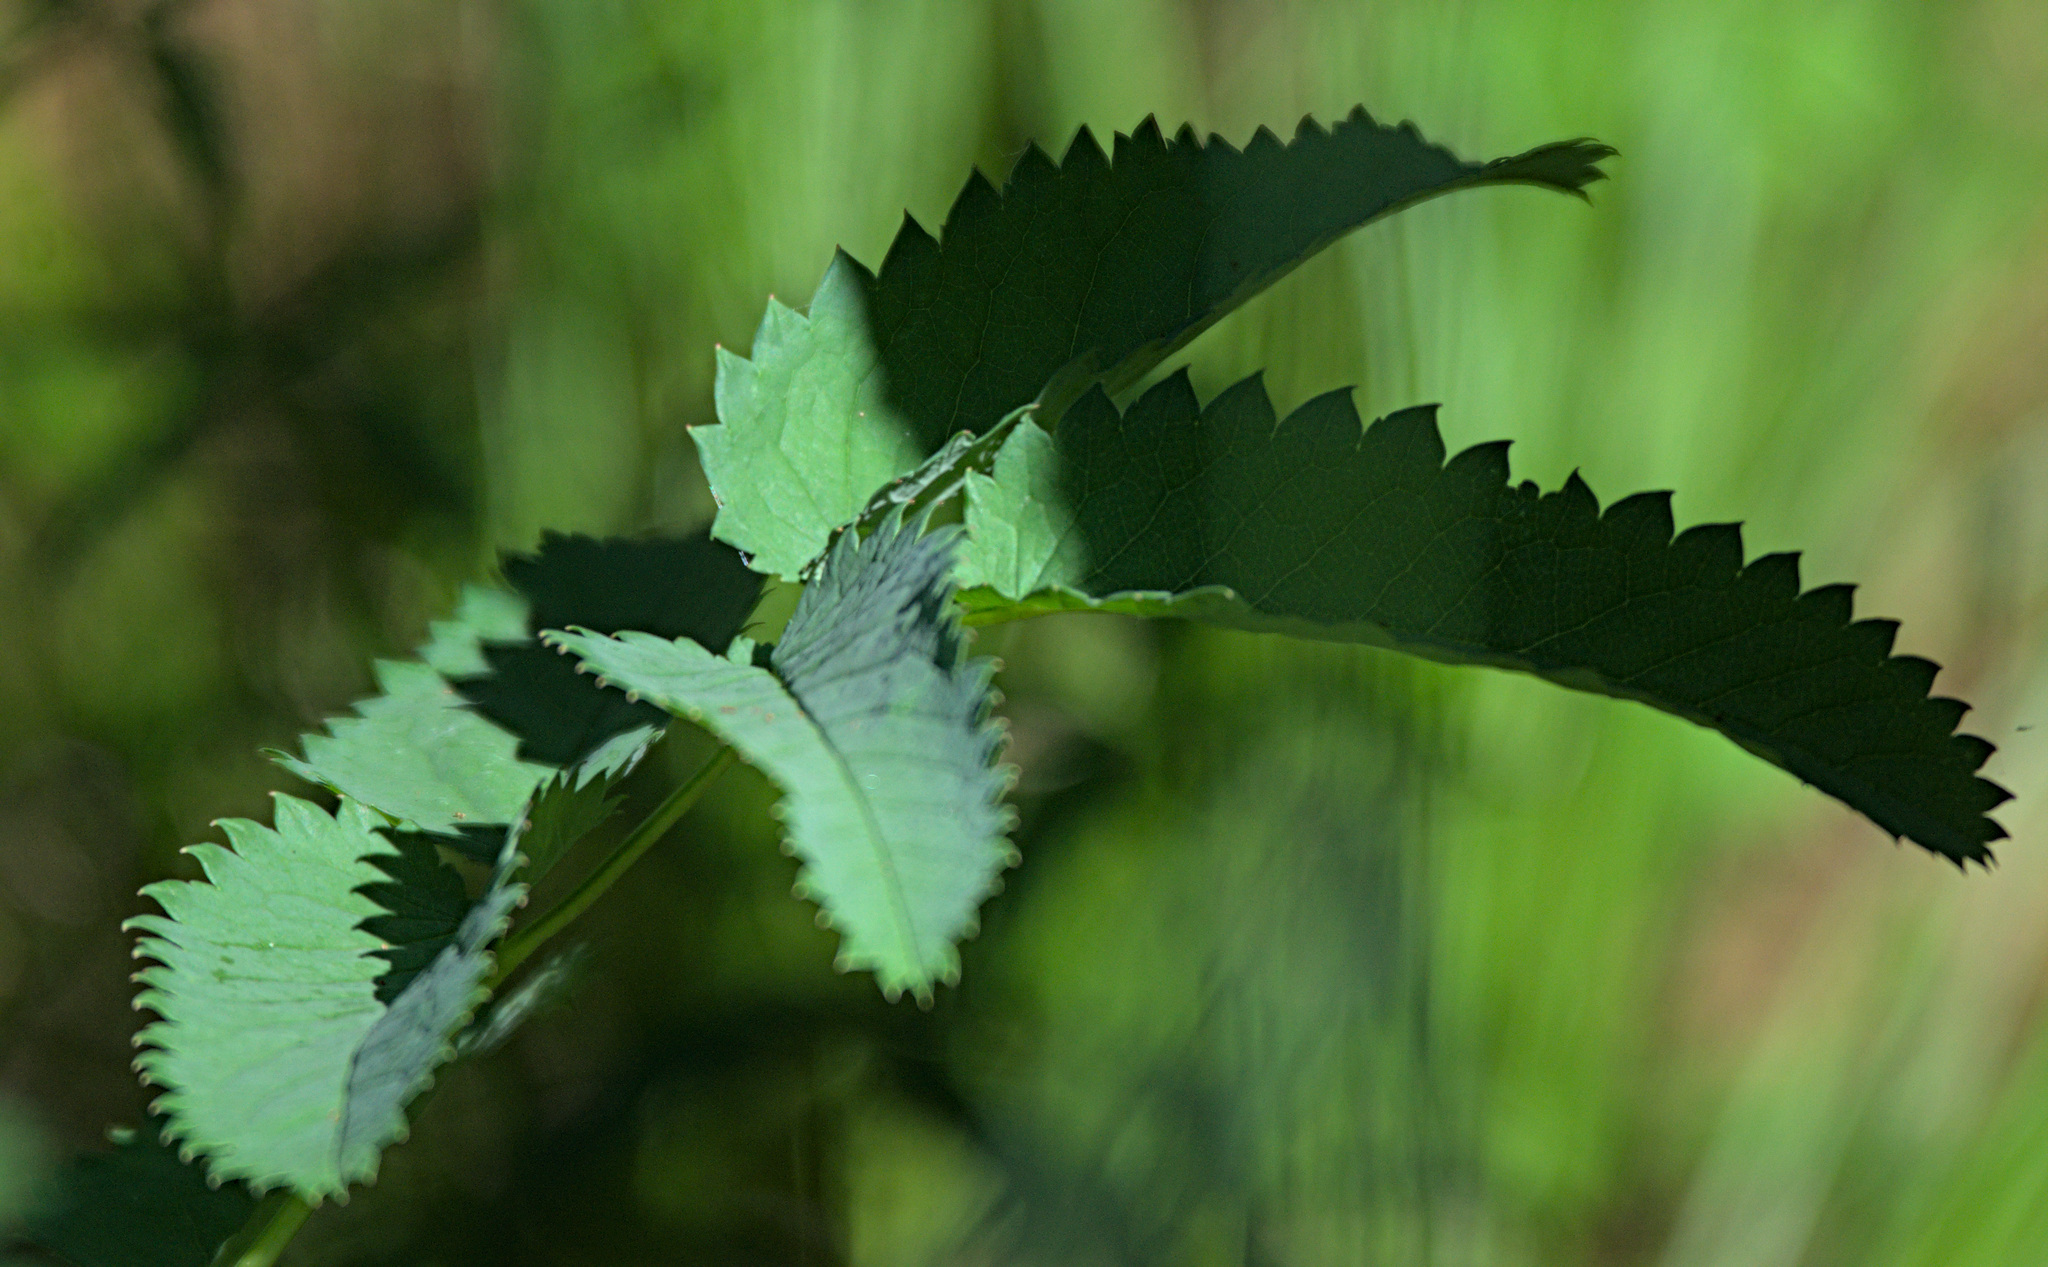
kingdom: Plantae
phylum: Tracheophyta
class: Magnoliopsida
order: Rosales
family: Rosaceae
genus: Sanguisorba
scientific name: Sanguisorba officinalis
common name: Great burnet
